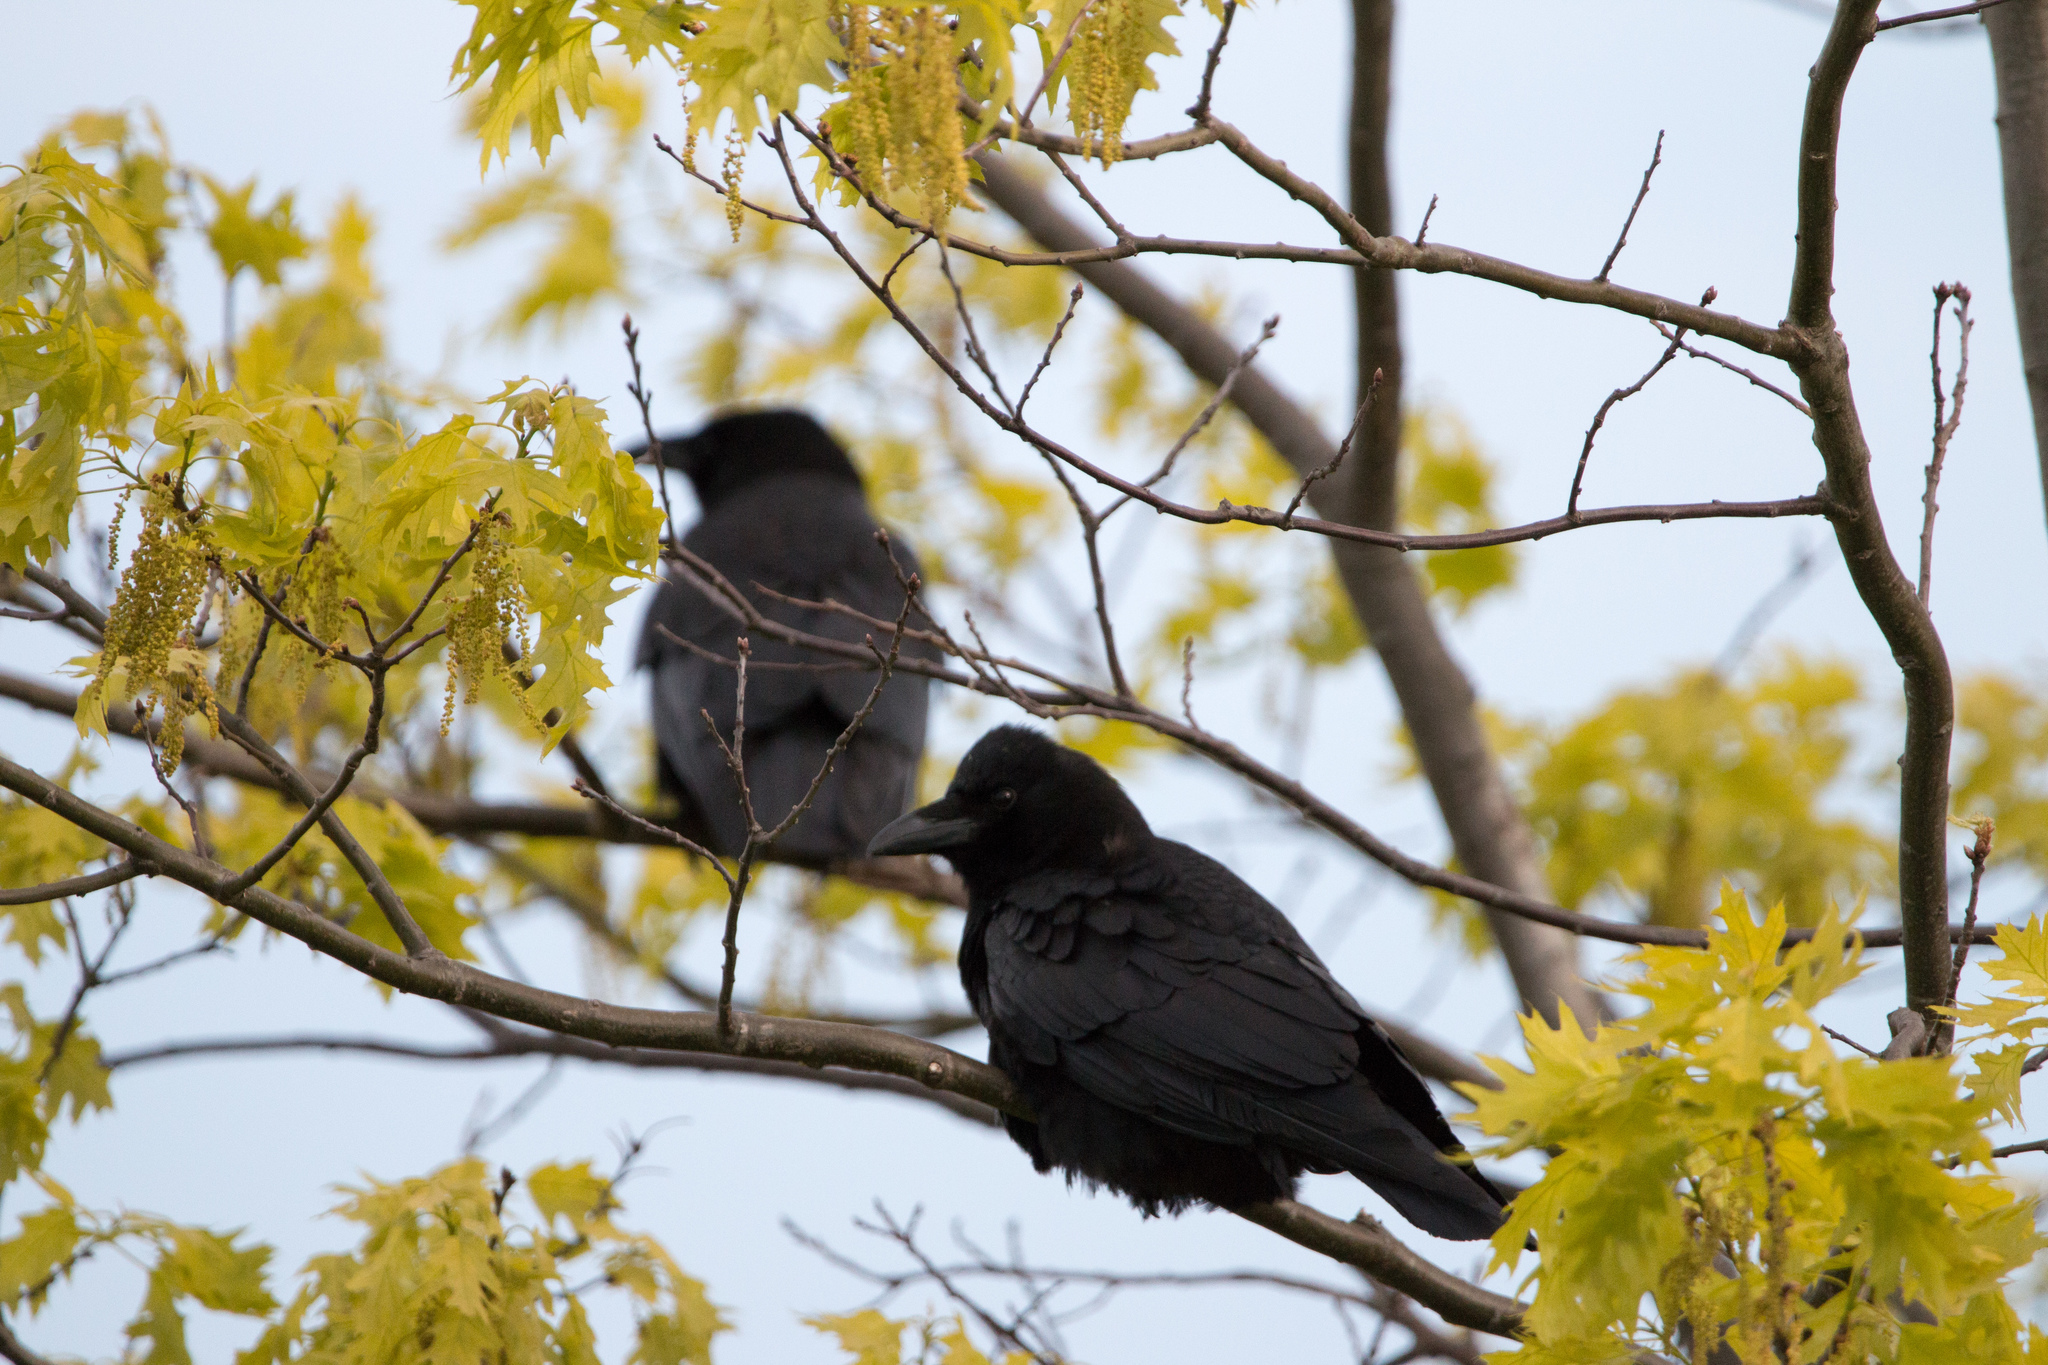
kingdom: Animalia
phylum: Chordata
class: Aves
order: Passeriformes
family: Corvidae
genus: Corvus
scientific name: Corvus brachyrhynchos
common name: American crow
